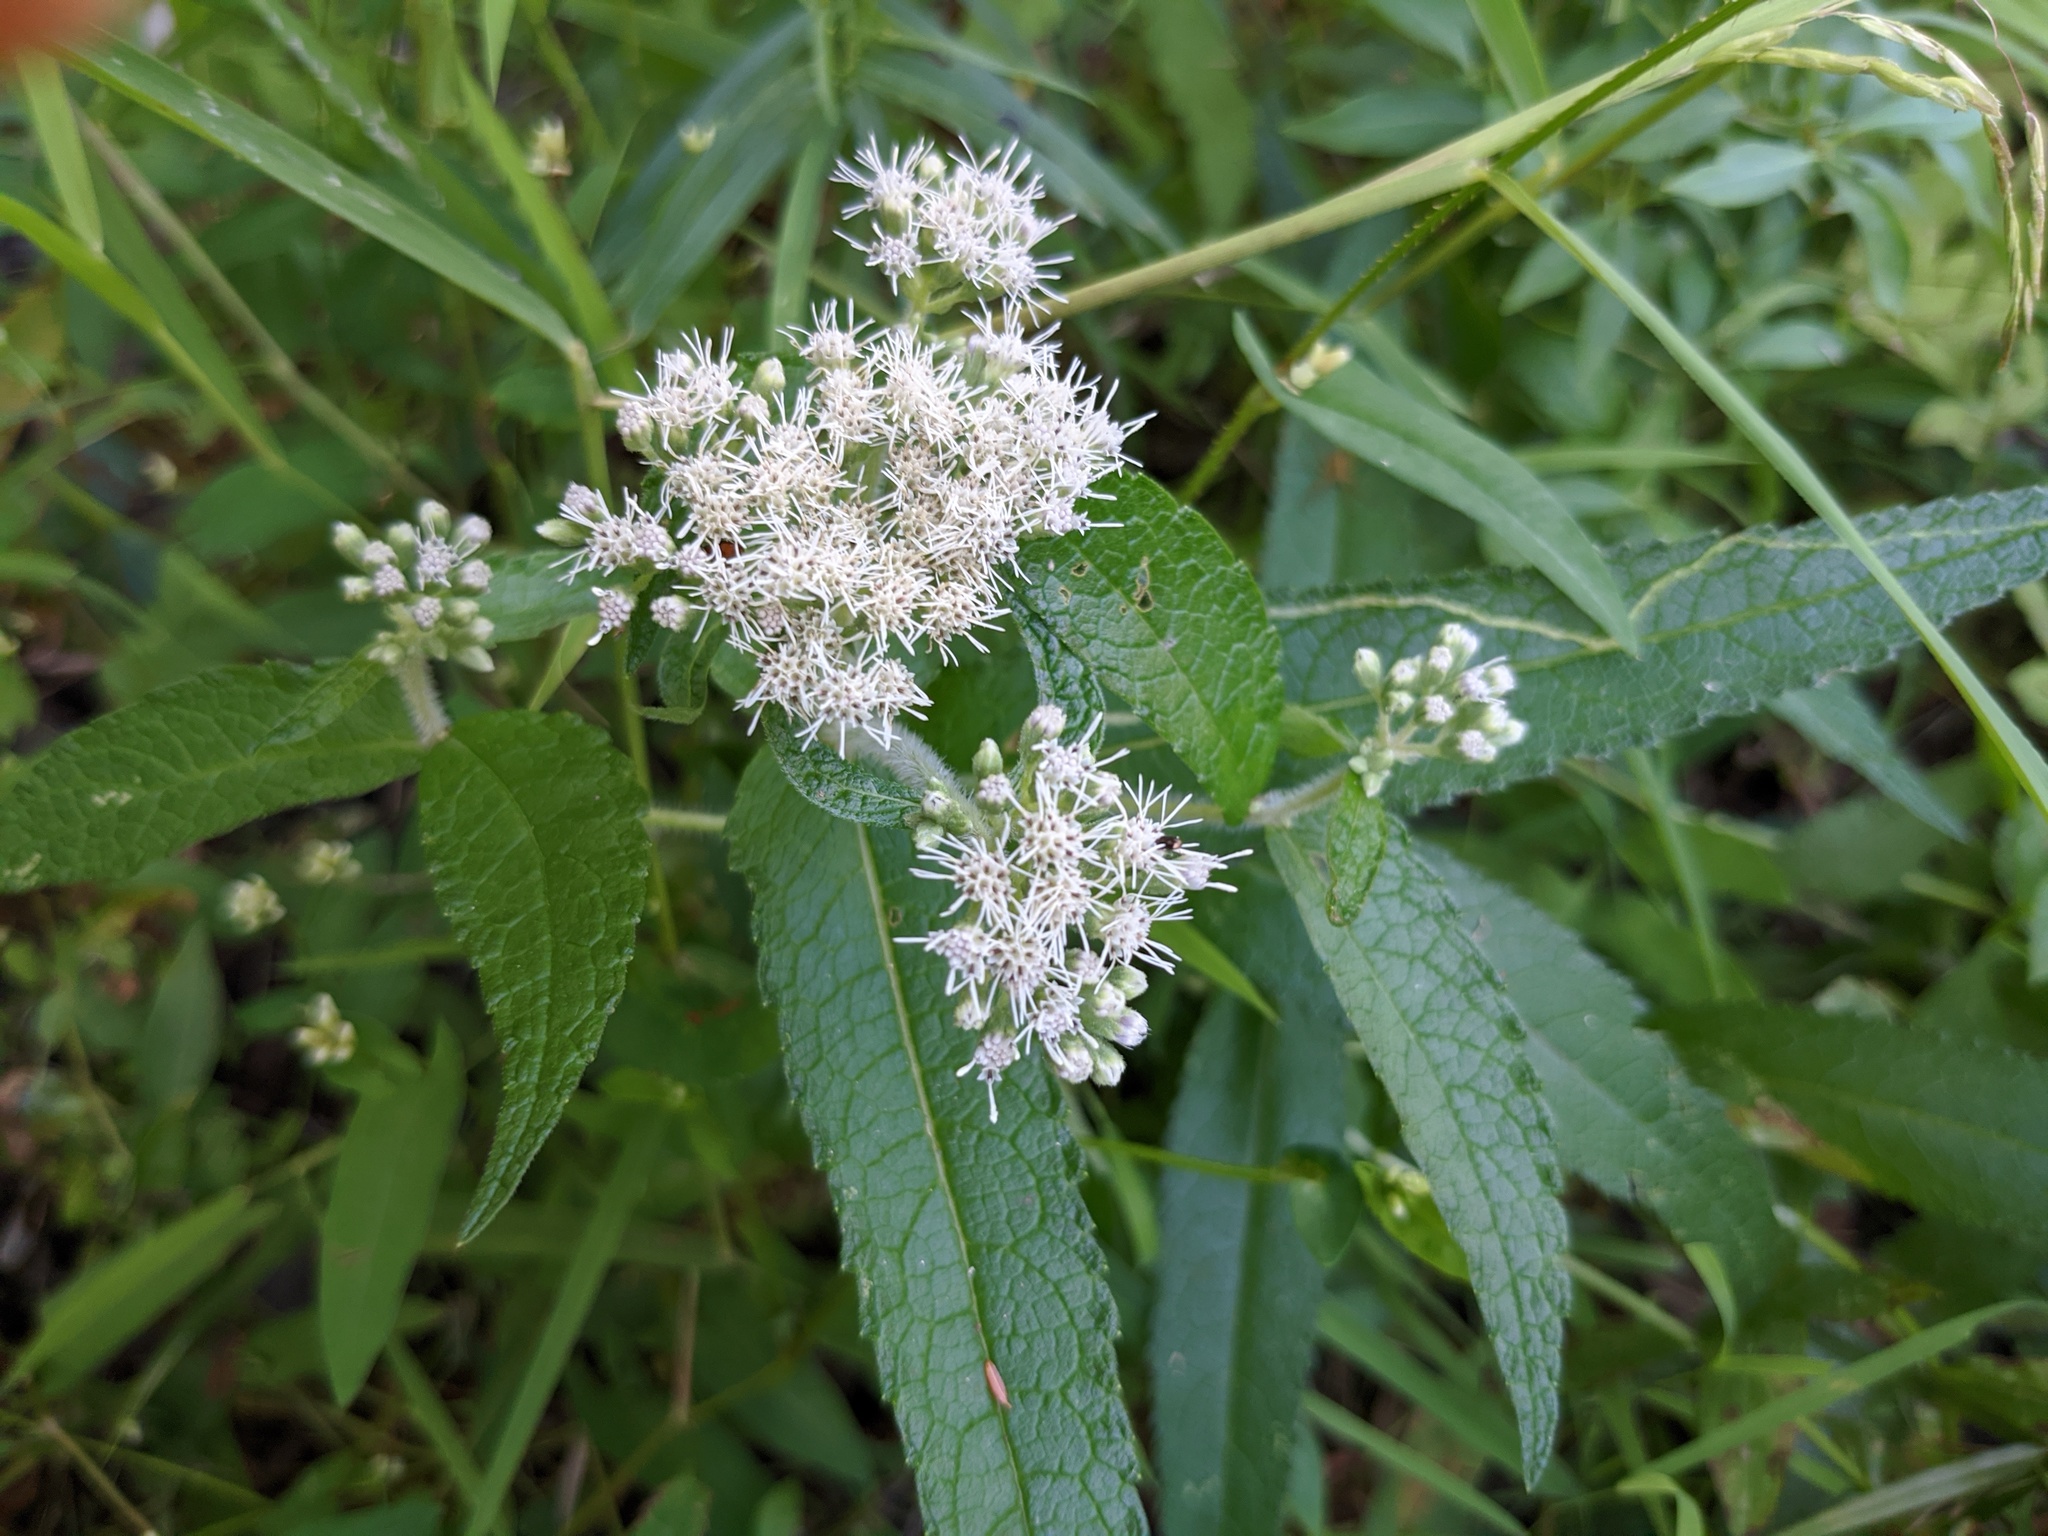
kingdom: Plantae
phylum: Tracheophyta
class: Magnoliopsida
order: Asterales
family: Asteraceae
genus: Eupatorium
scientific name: Eupatorium perfoliatum
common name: Boneset
